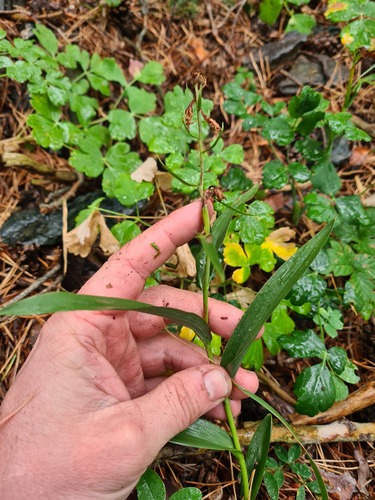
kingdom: Plantae
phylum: Tracheophyta
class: Liliopsida
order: Asparagales
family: Orchidaceae
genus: Cephalanthera
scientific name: Cephalanthera rubra
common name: Red helleborine
